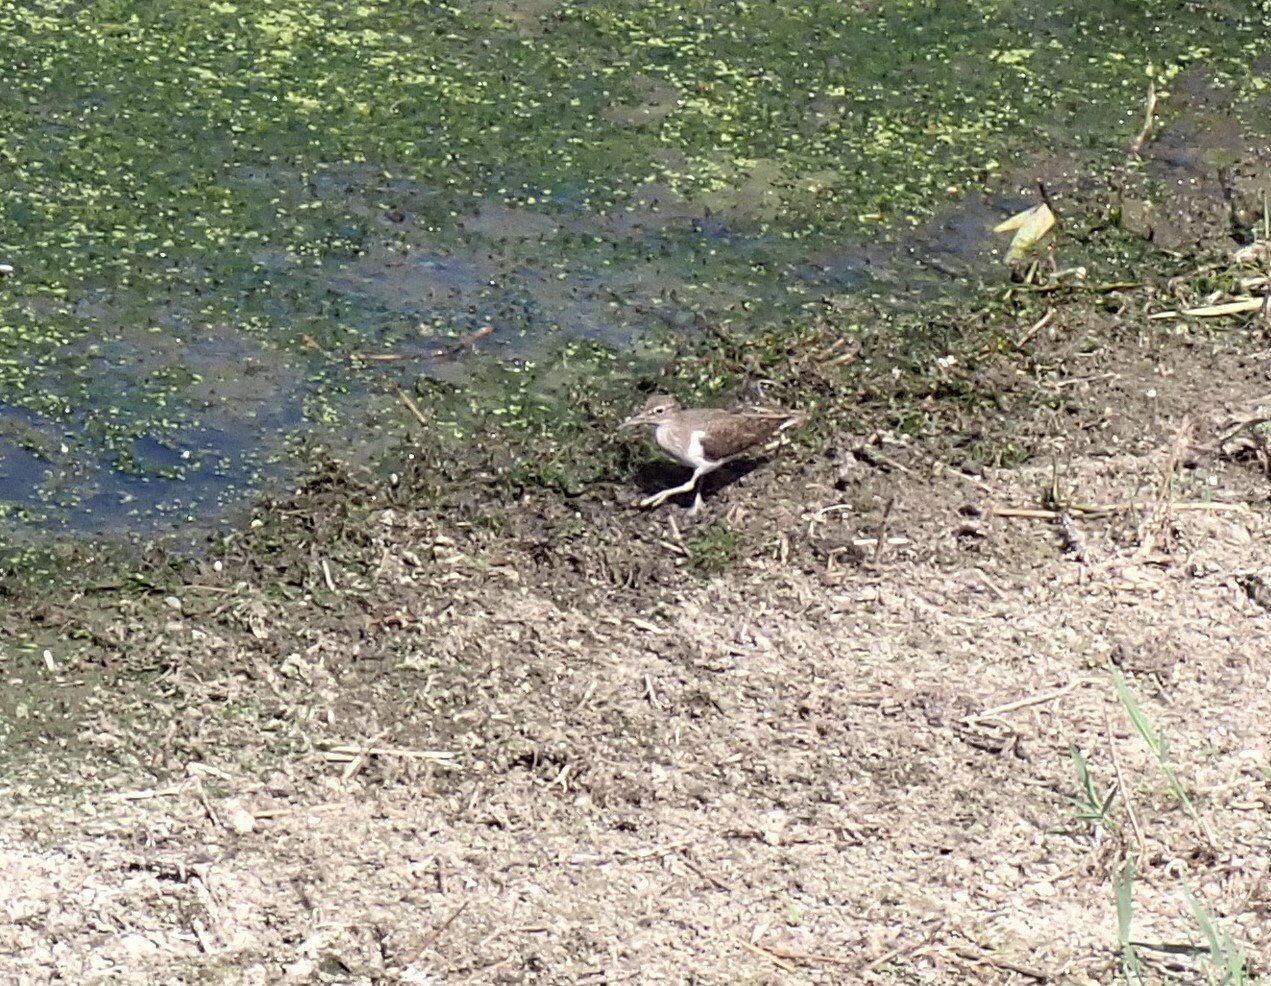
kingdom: Animalia
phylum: Chordata
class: Aves
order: Charadriiformes
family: Scolopacidae
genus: Actitis
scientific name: Actitis hypoleucos
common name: Common sandpiper
